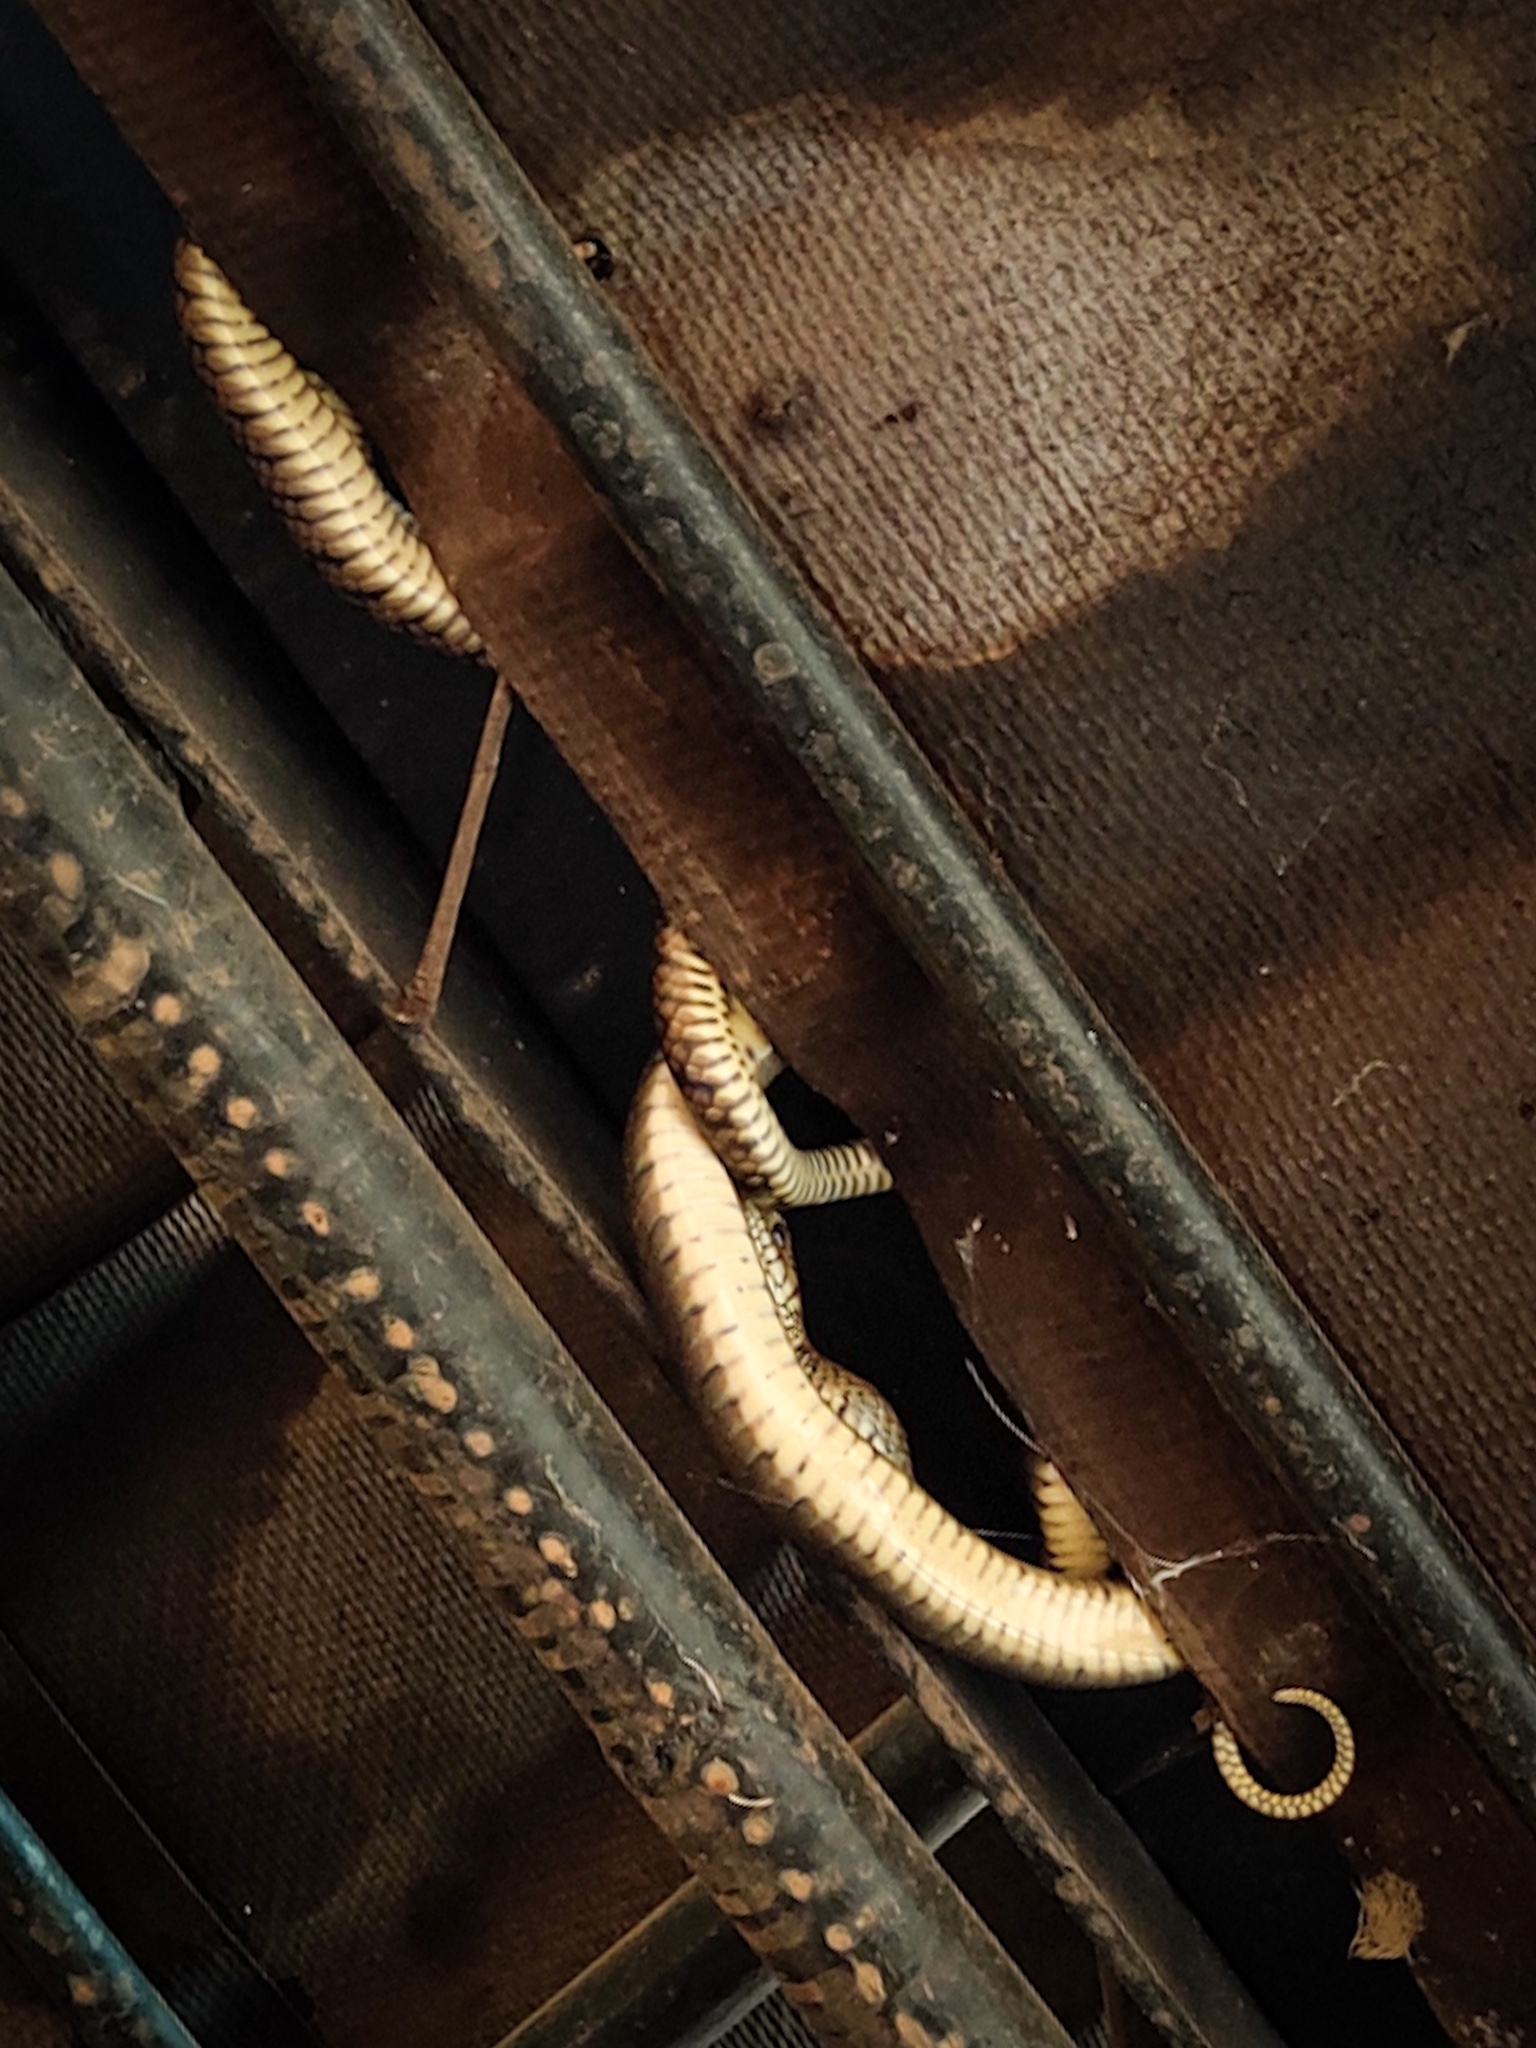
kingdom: Animalia
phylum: Chordata
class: Squamata
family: Colubridae
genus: Ptyas
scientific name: Ptyas mucosa
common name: Oriental ratsnake
